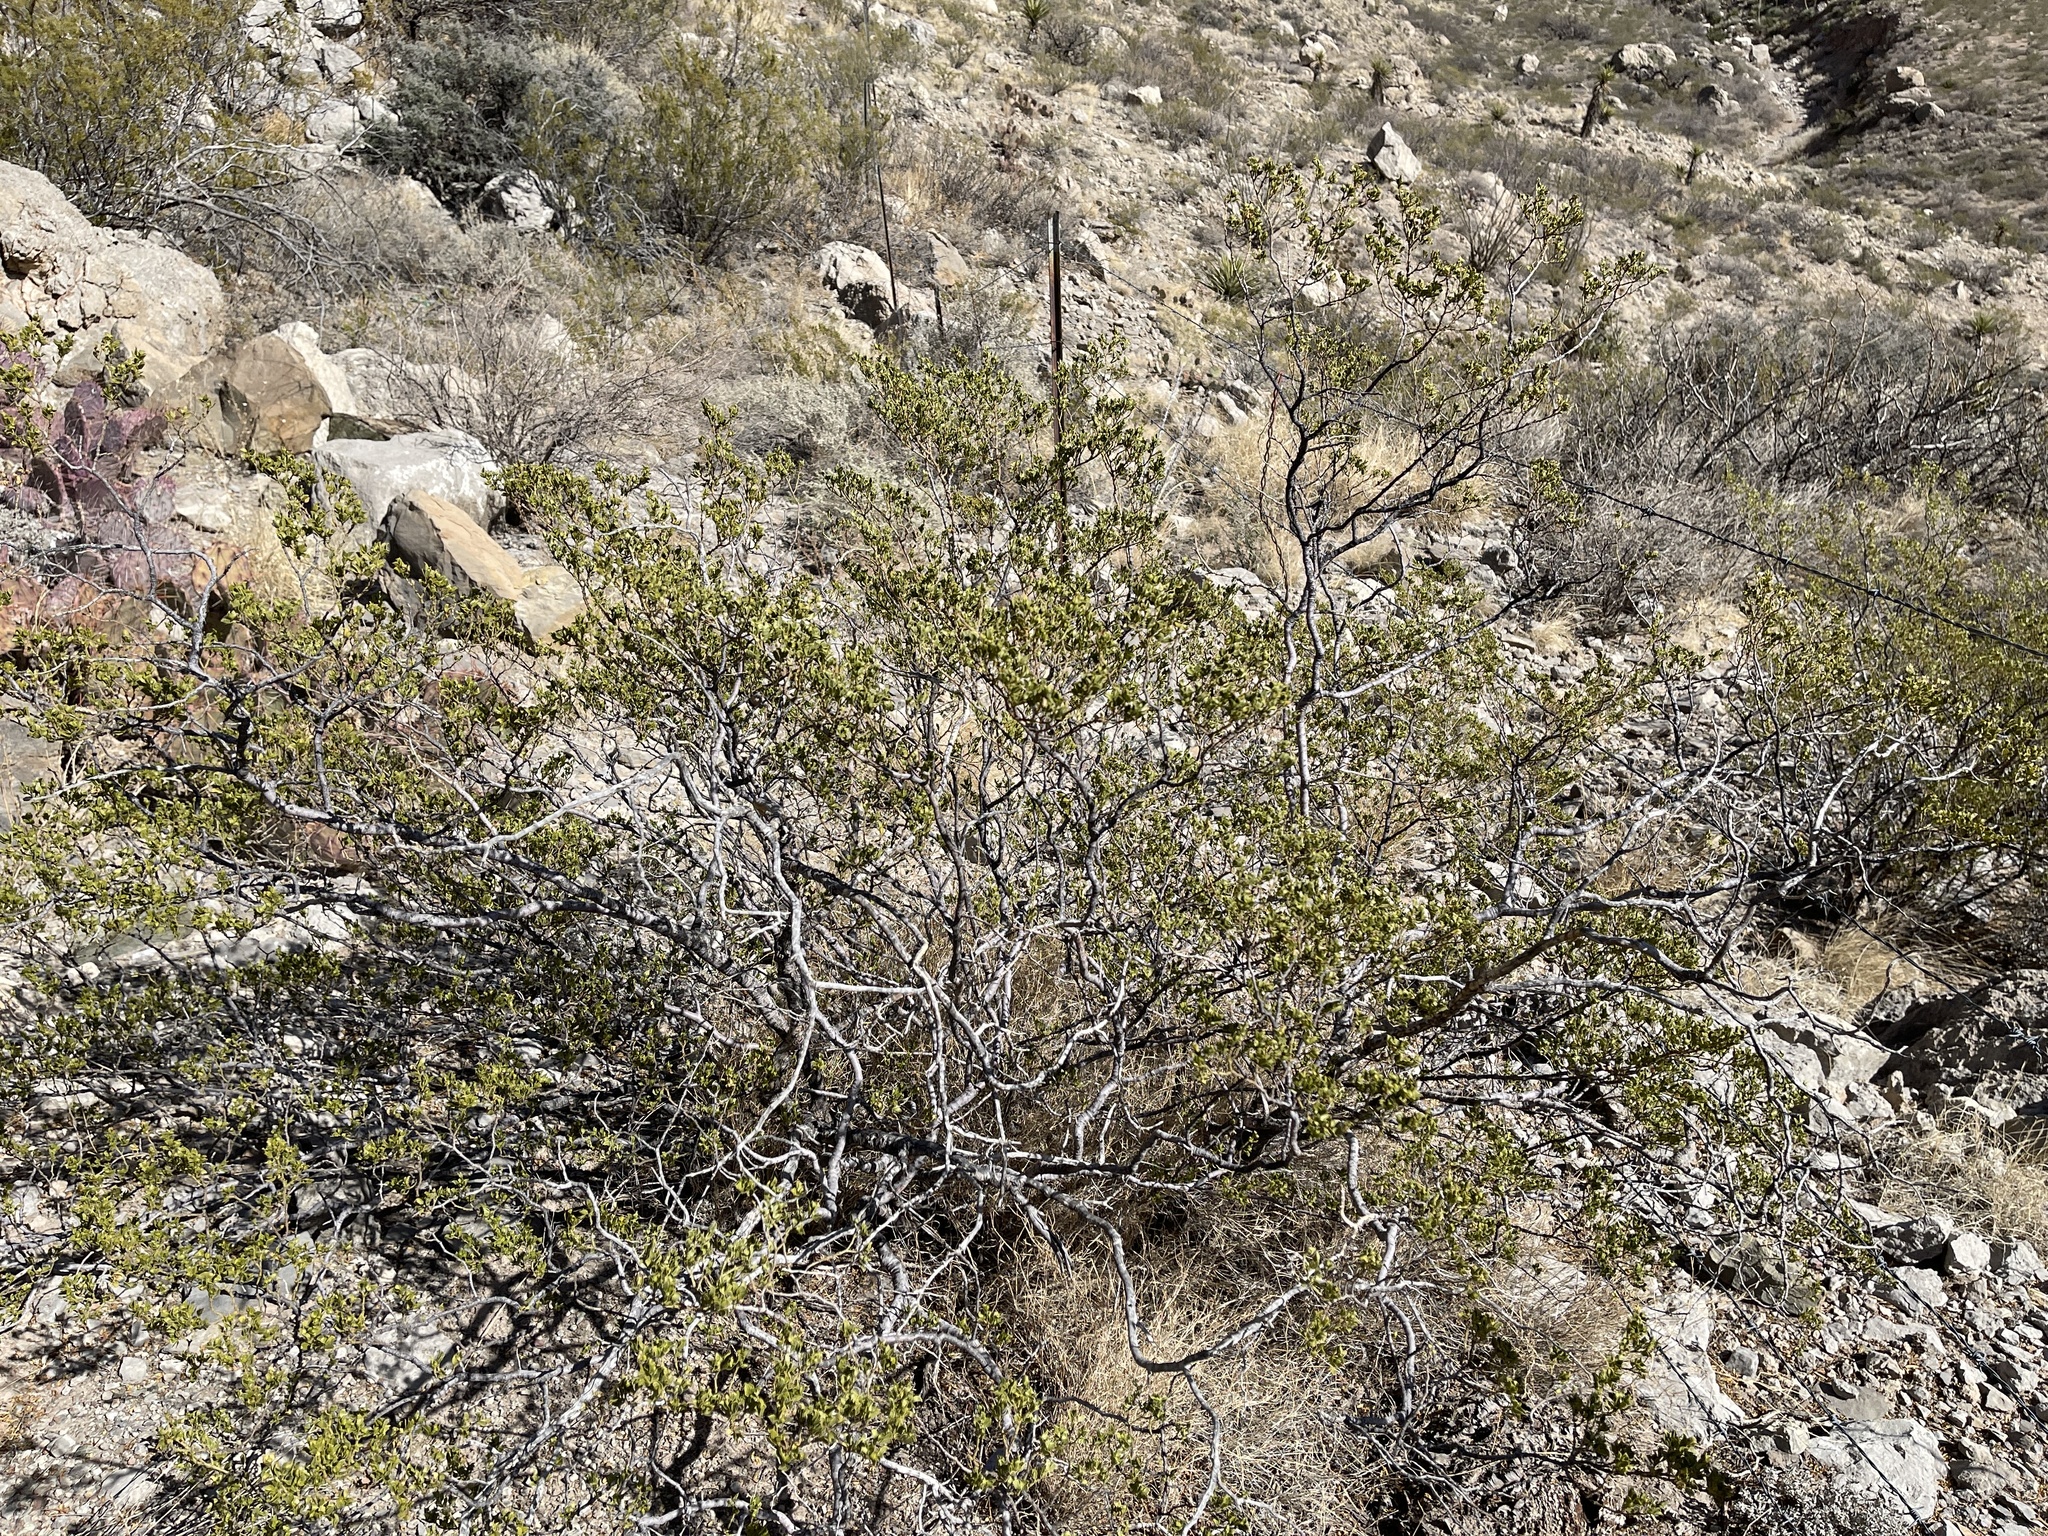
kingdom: Plantae
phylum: Tracheophyta
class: Magnoliopsida
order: Zygophyllales
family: Zygophyllaceae
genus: Larrea
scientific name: Larrea tridentata
